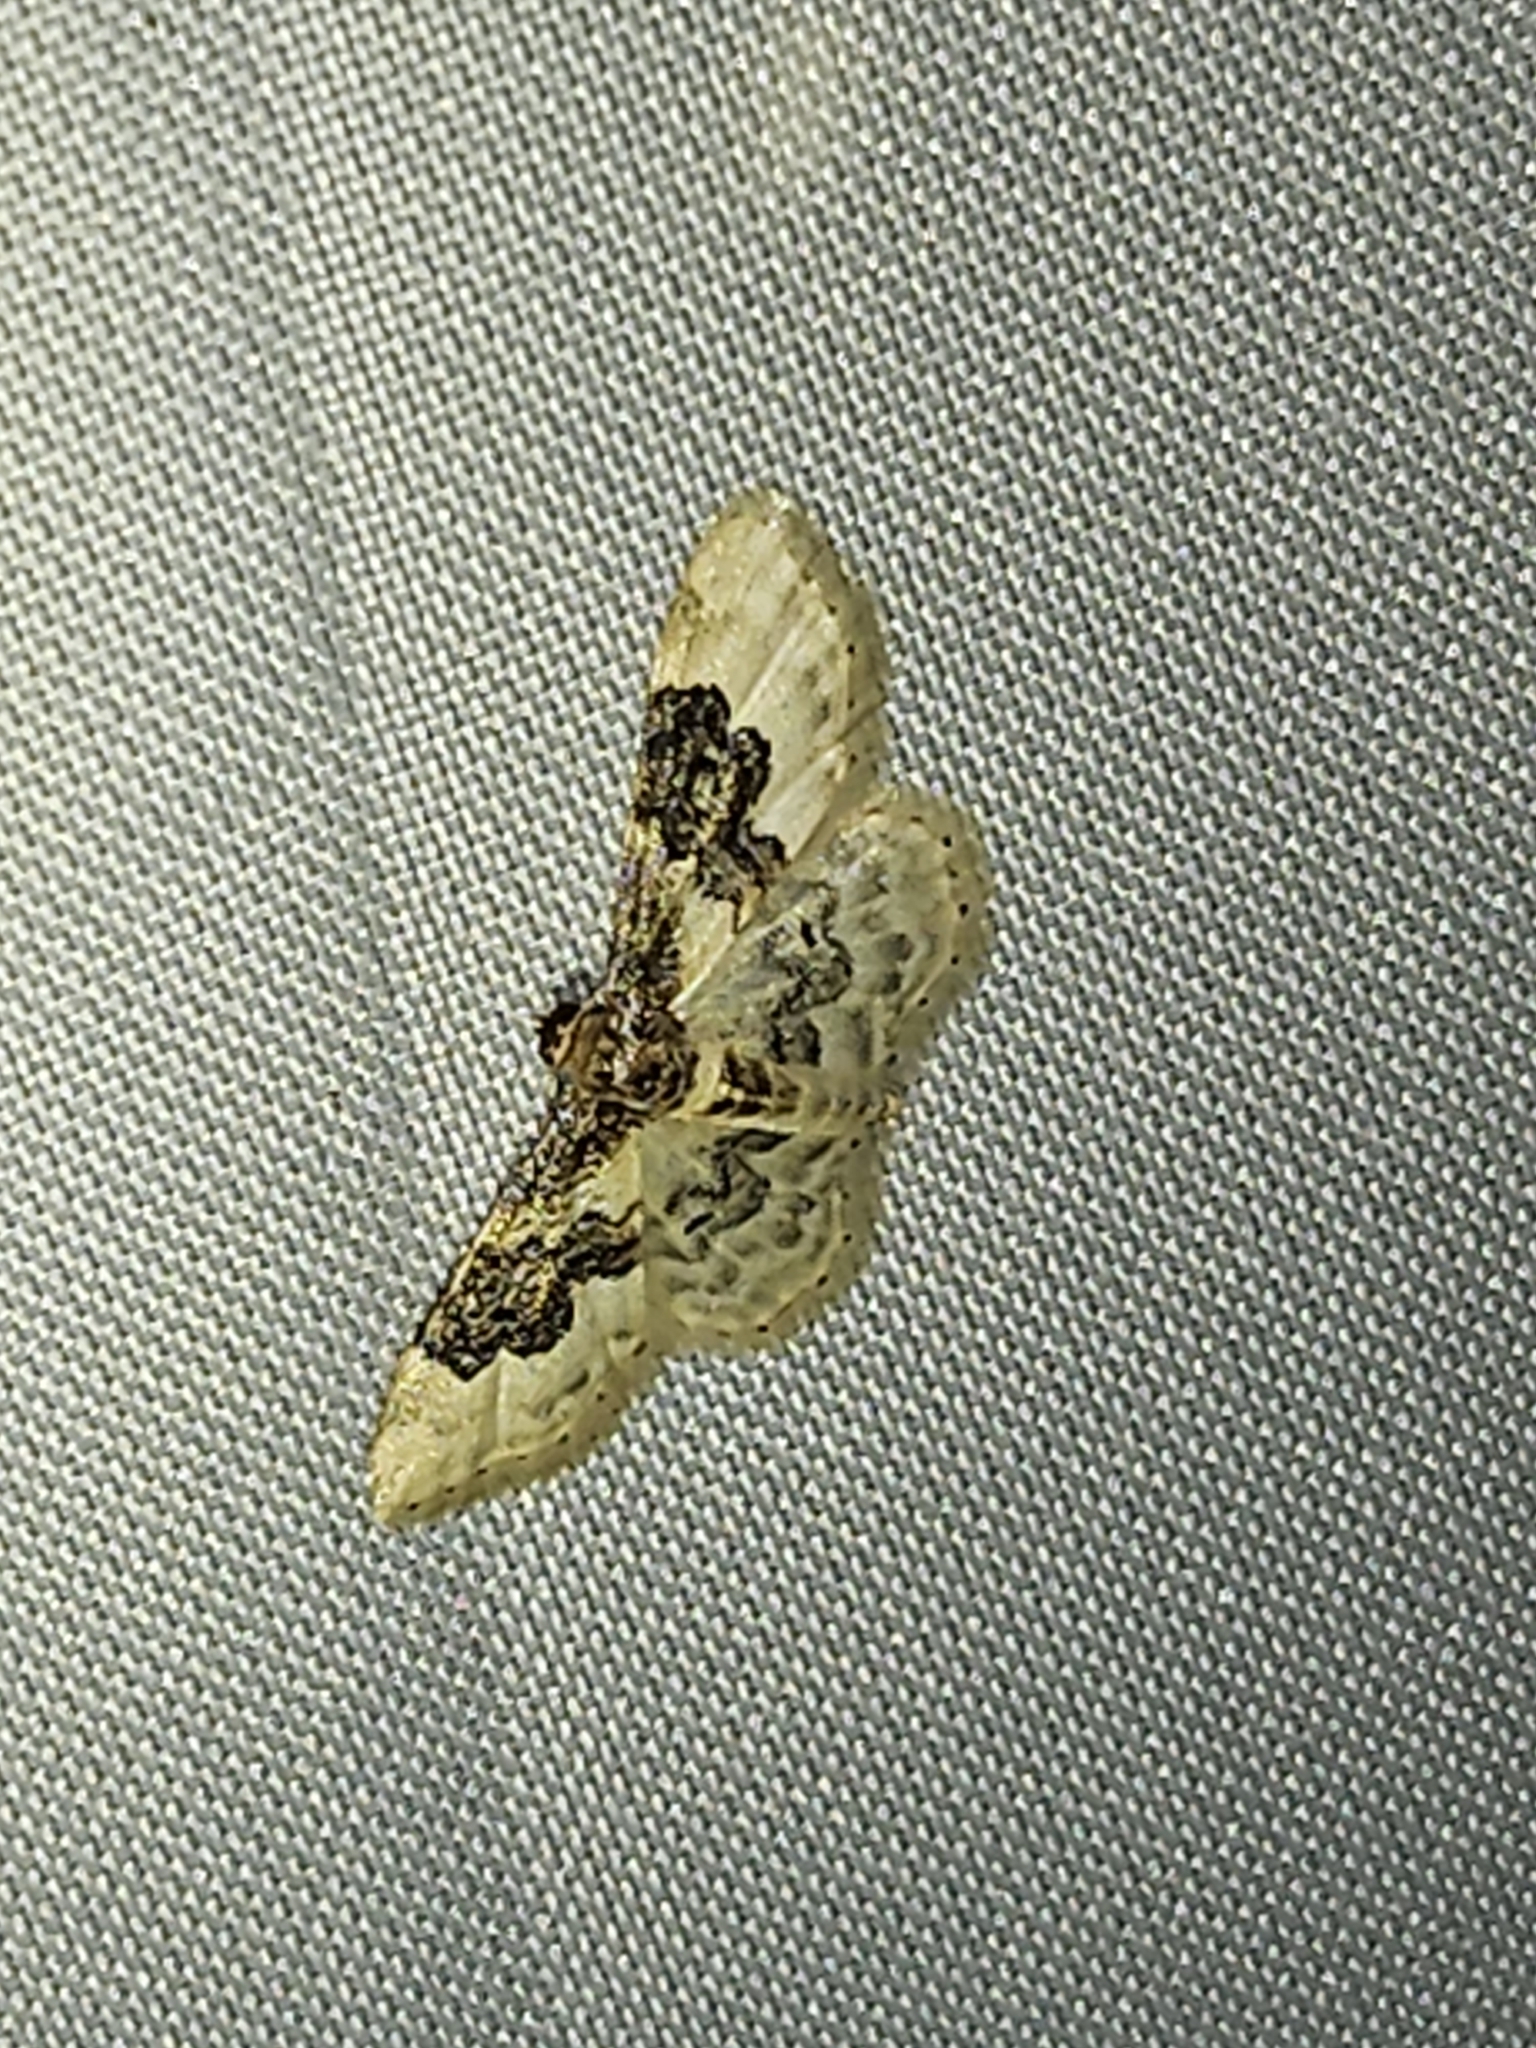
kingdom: Animalia
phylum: Arthropoda
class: Insecta
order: Lepidoptera
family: Geometridae
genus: Idaea
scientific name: Idaea rusticata
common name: Least carpet
